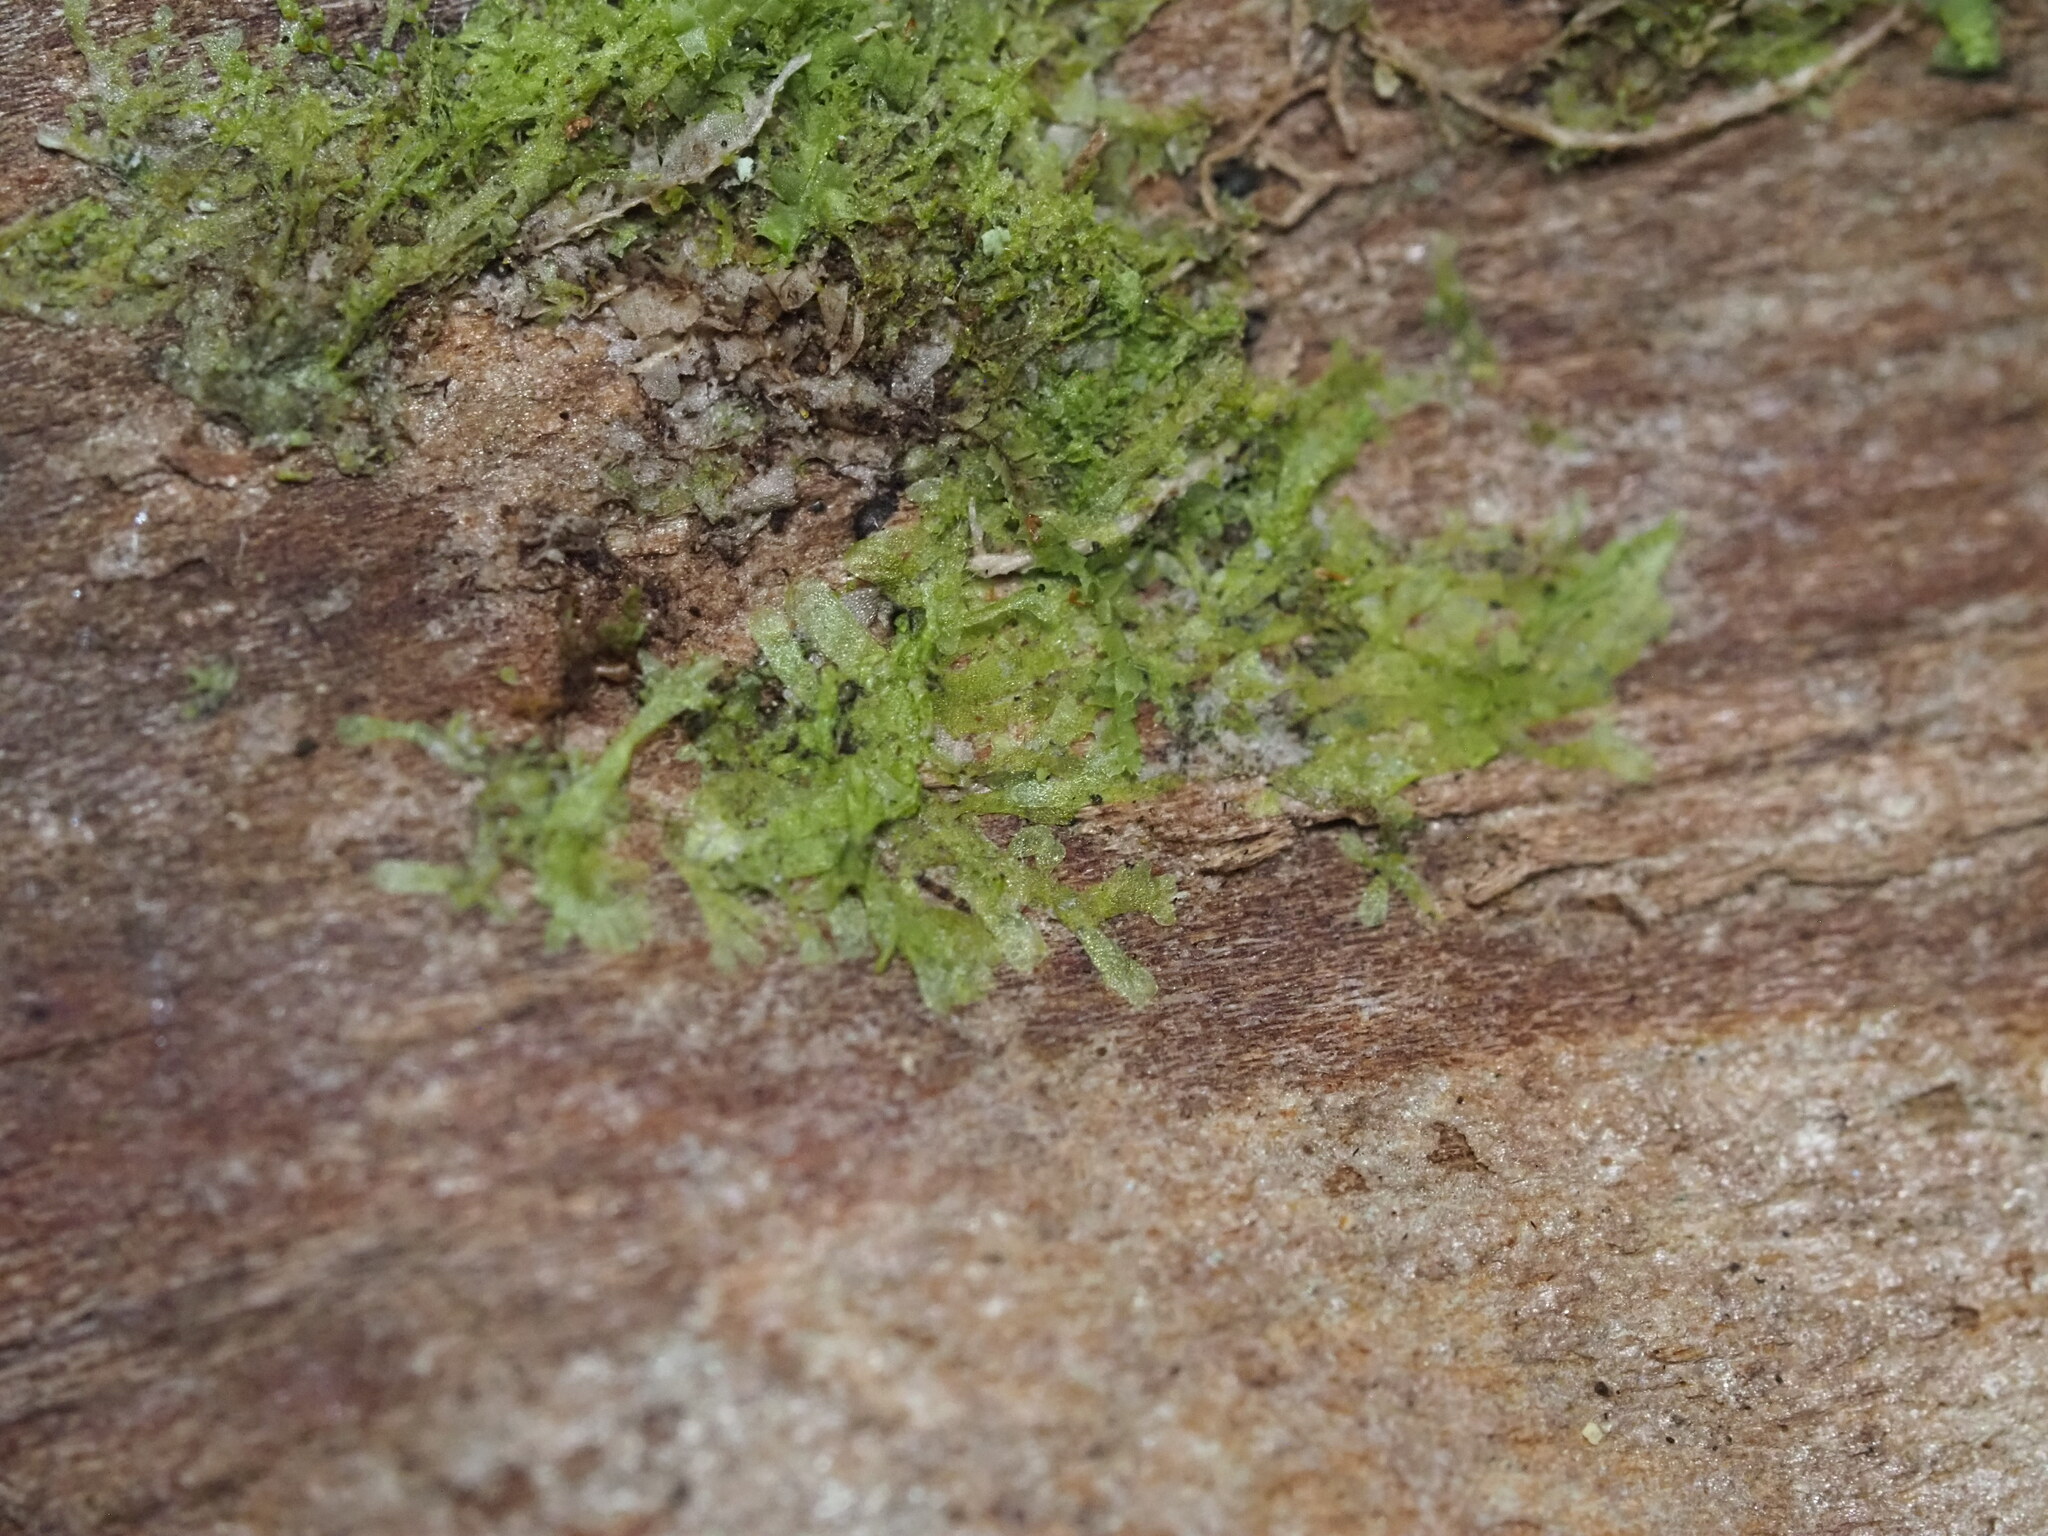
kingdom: Plantae
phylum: Marchantiophyta
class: Jungermanniopsida
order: Metzgeriales
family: Metzgeriaceae
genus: Metzgeria
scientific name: Metzgeria furcata
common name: Forked veilwort
